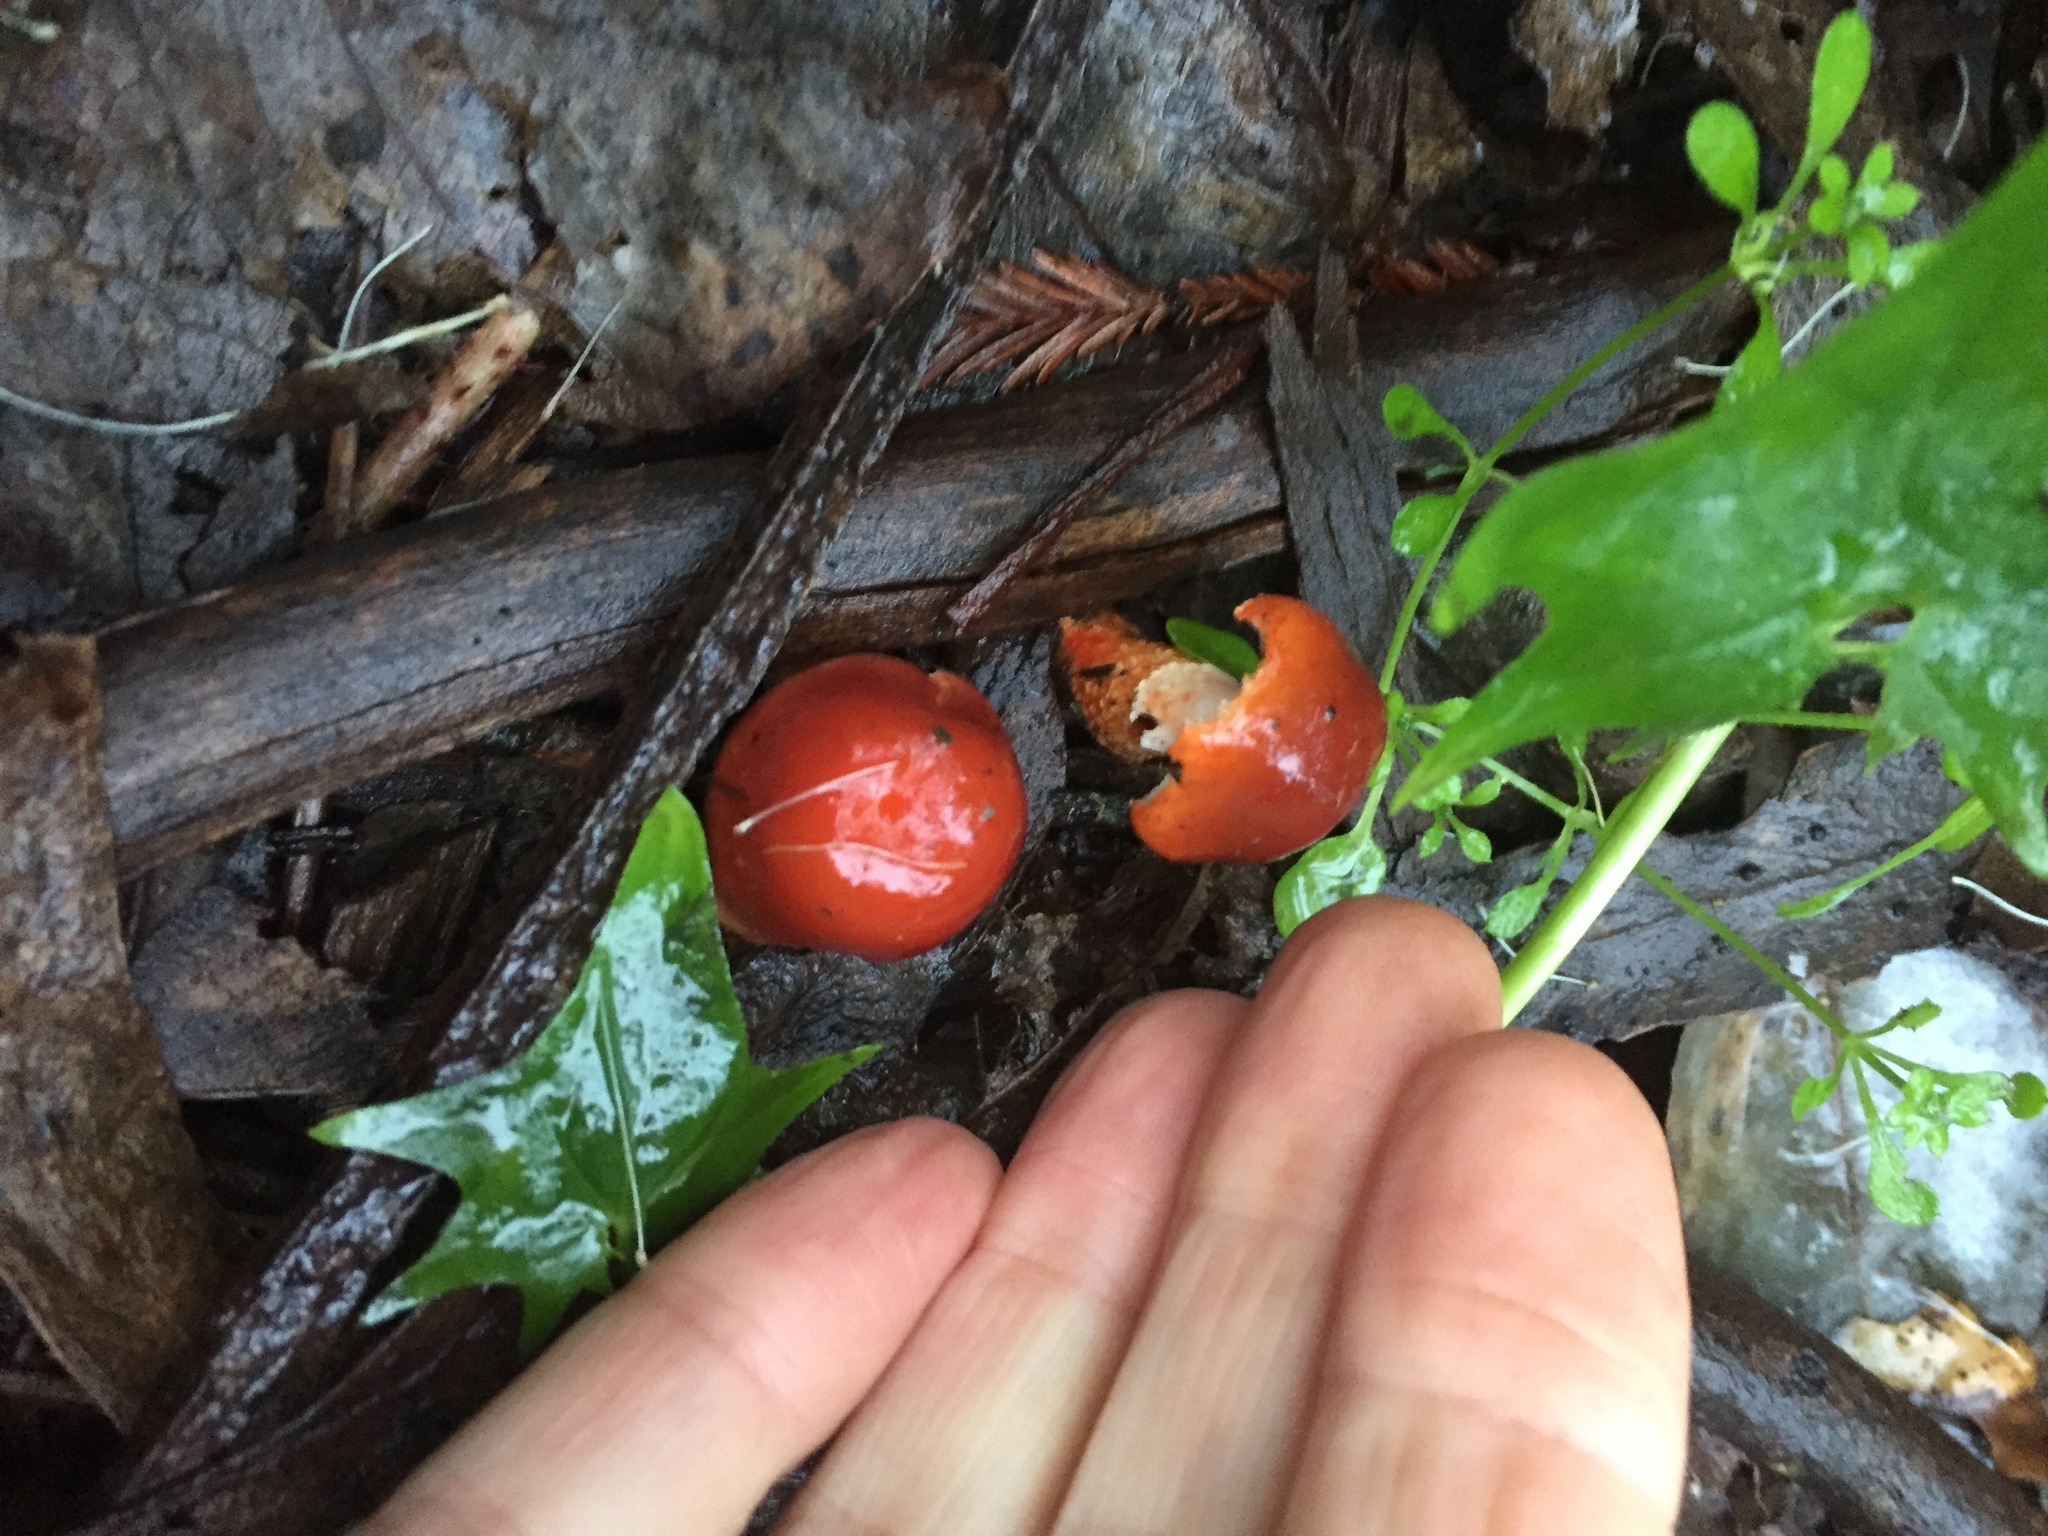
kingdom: Fungi
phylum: Basidiomycota
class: Agaricomycetes
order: Agaricales
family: Strophariaceae
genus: Leratiomyces
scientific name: Leratiomyces ceres
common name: Redlead roundhead
